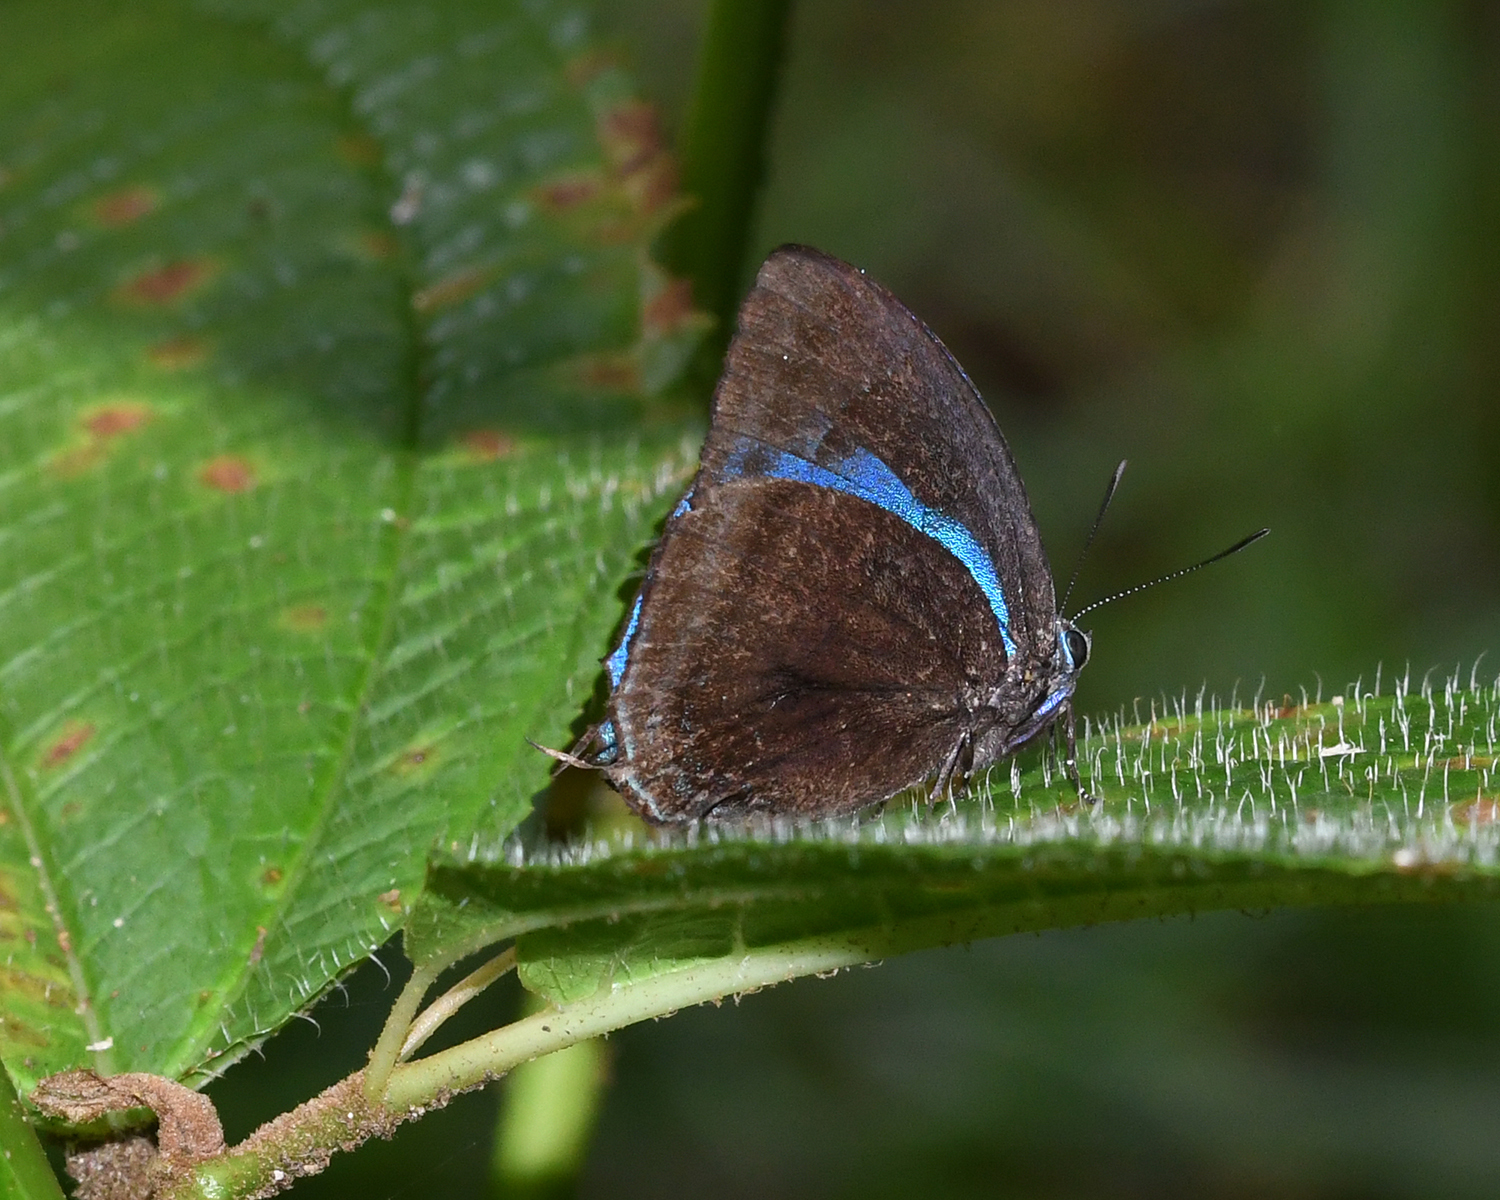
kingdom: Animalia
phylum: Arthropoda
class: Insecta
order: Lepidoptera
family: Lycaenidae
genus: Denivia
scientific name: Denivia hemon
